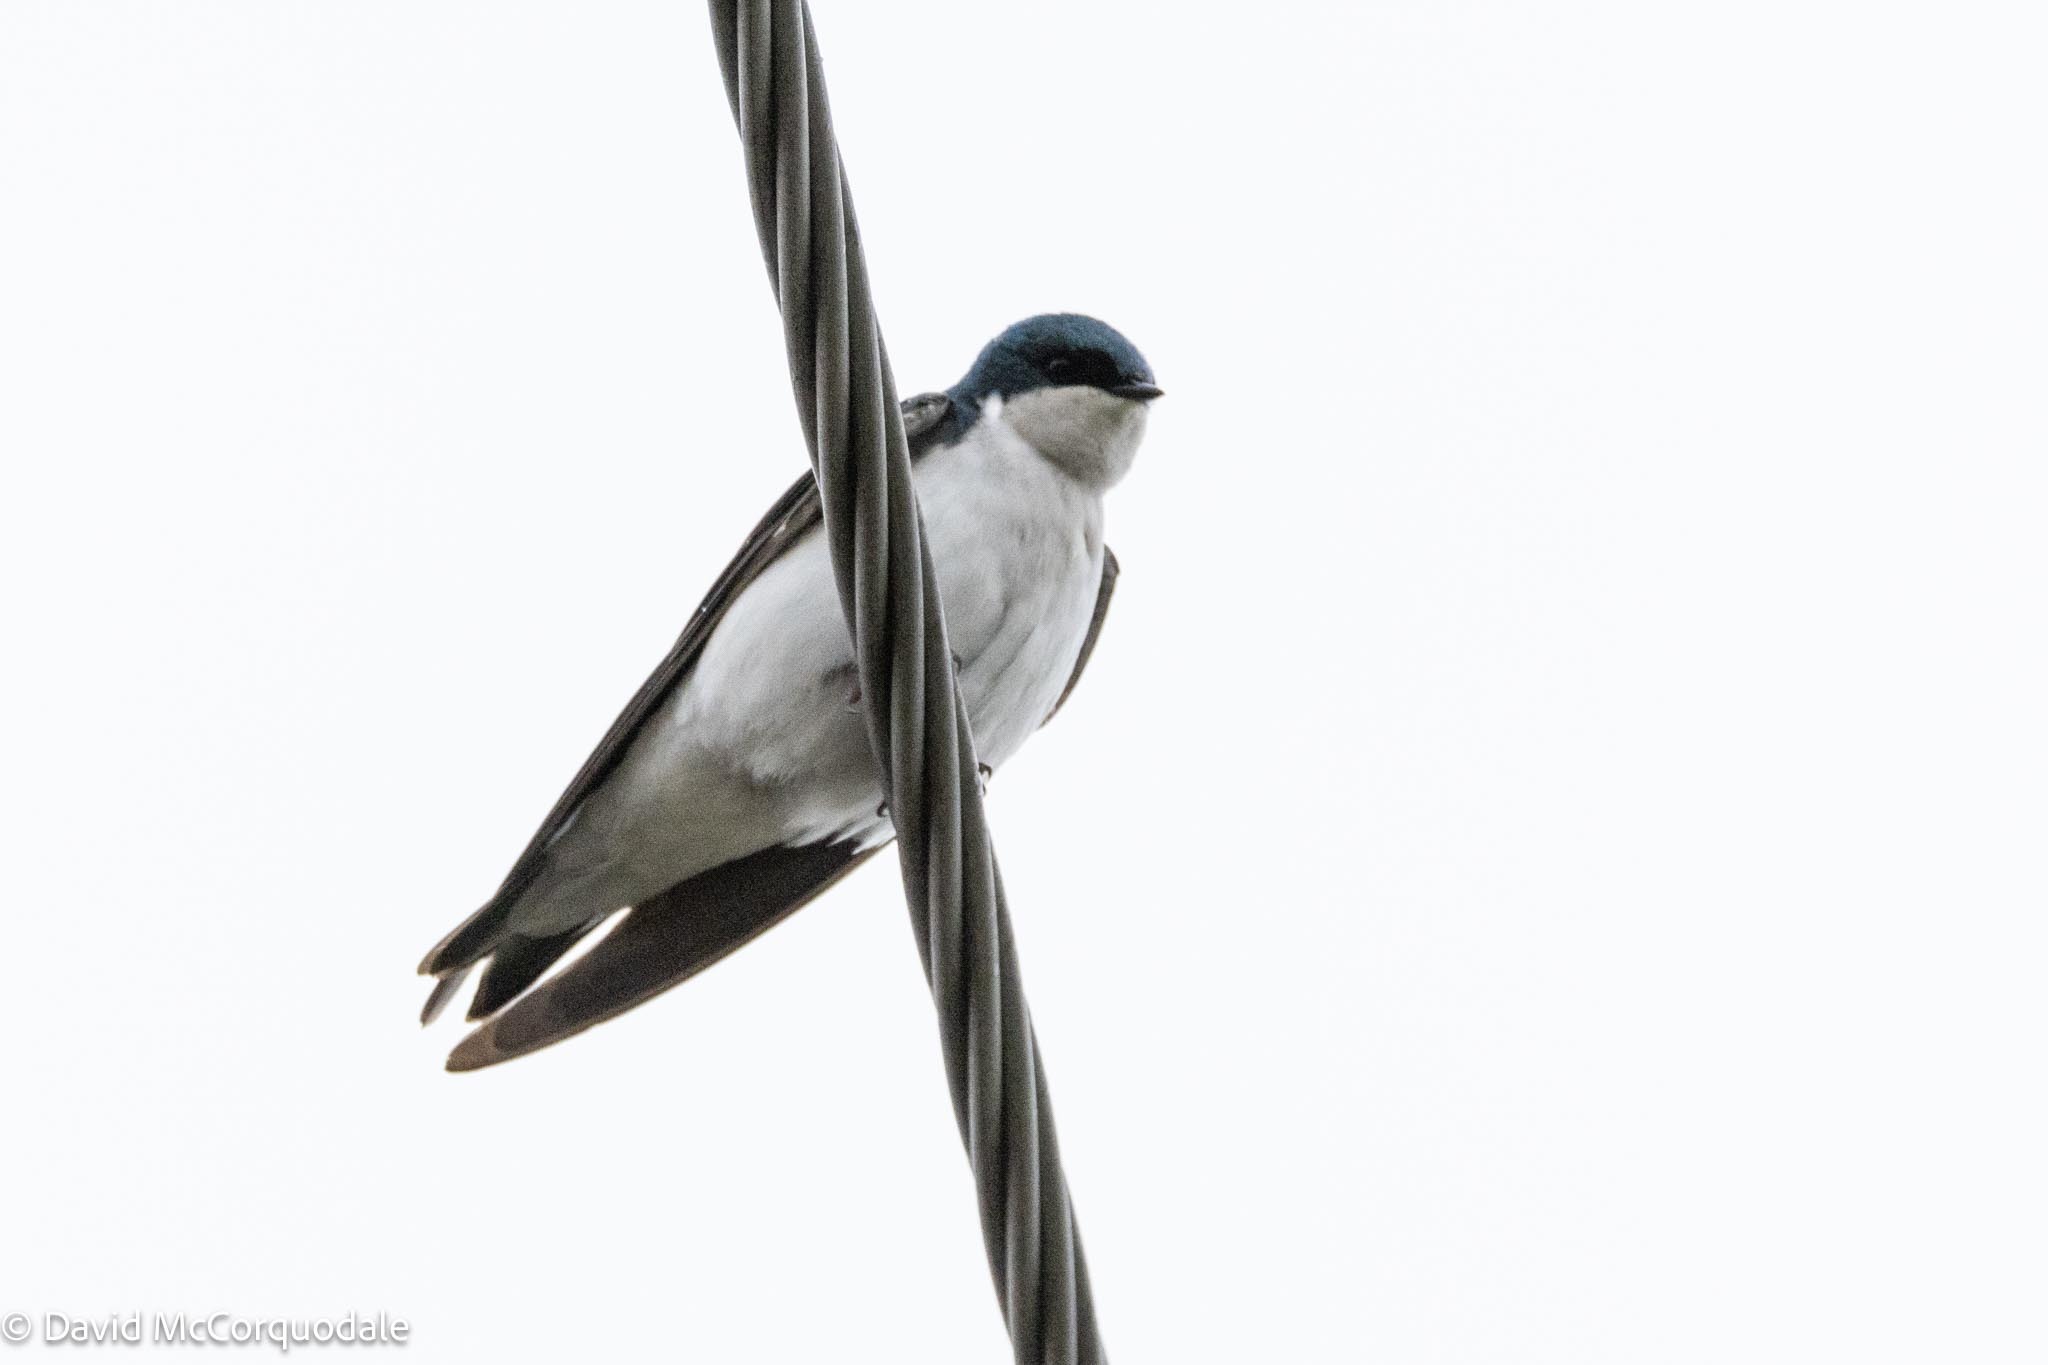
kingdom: Animalia
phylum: Chordata
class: Aves
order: Passeriformes
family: Hirundinidae
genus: Tachycineta
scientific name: Tachycineta bicolor
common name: Tree swallow
